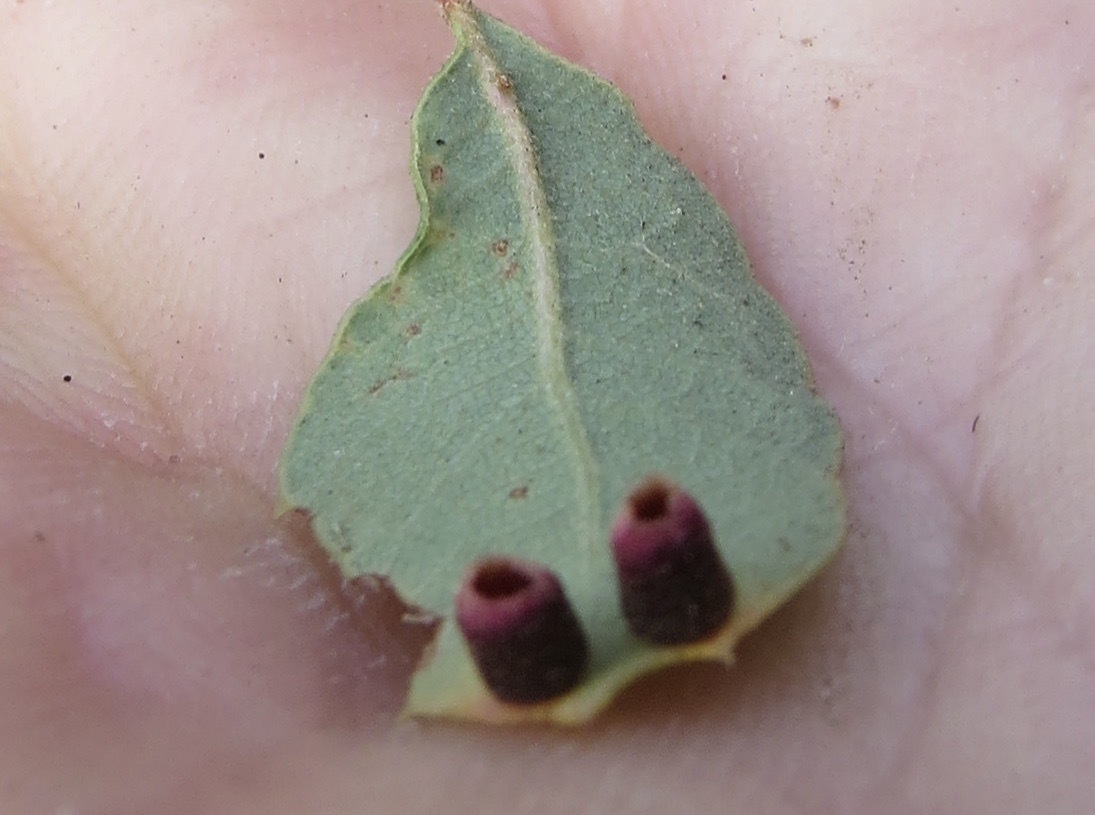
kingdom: Animalia
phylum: Arthropoda
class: Insecta
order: Hymenoptera
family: Cynipidae
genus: Phylloteras
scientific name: Phylloteras
